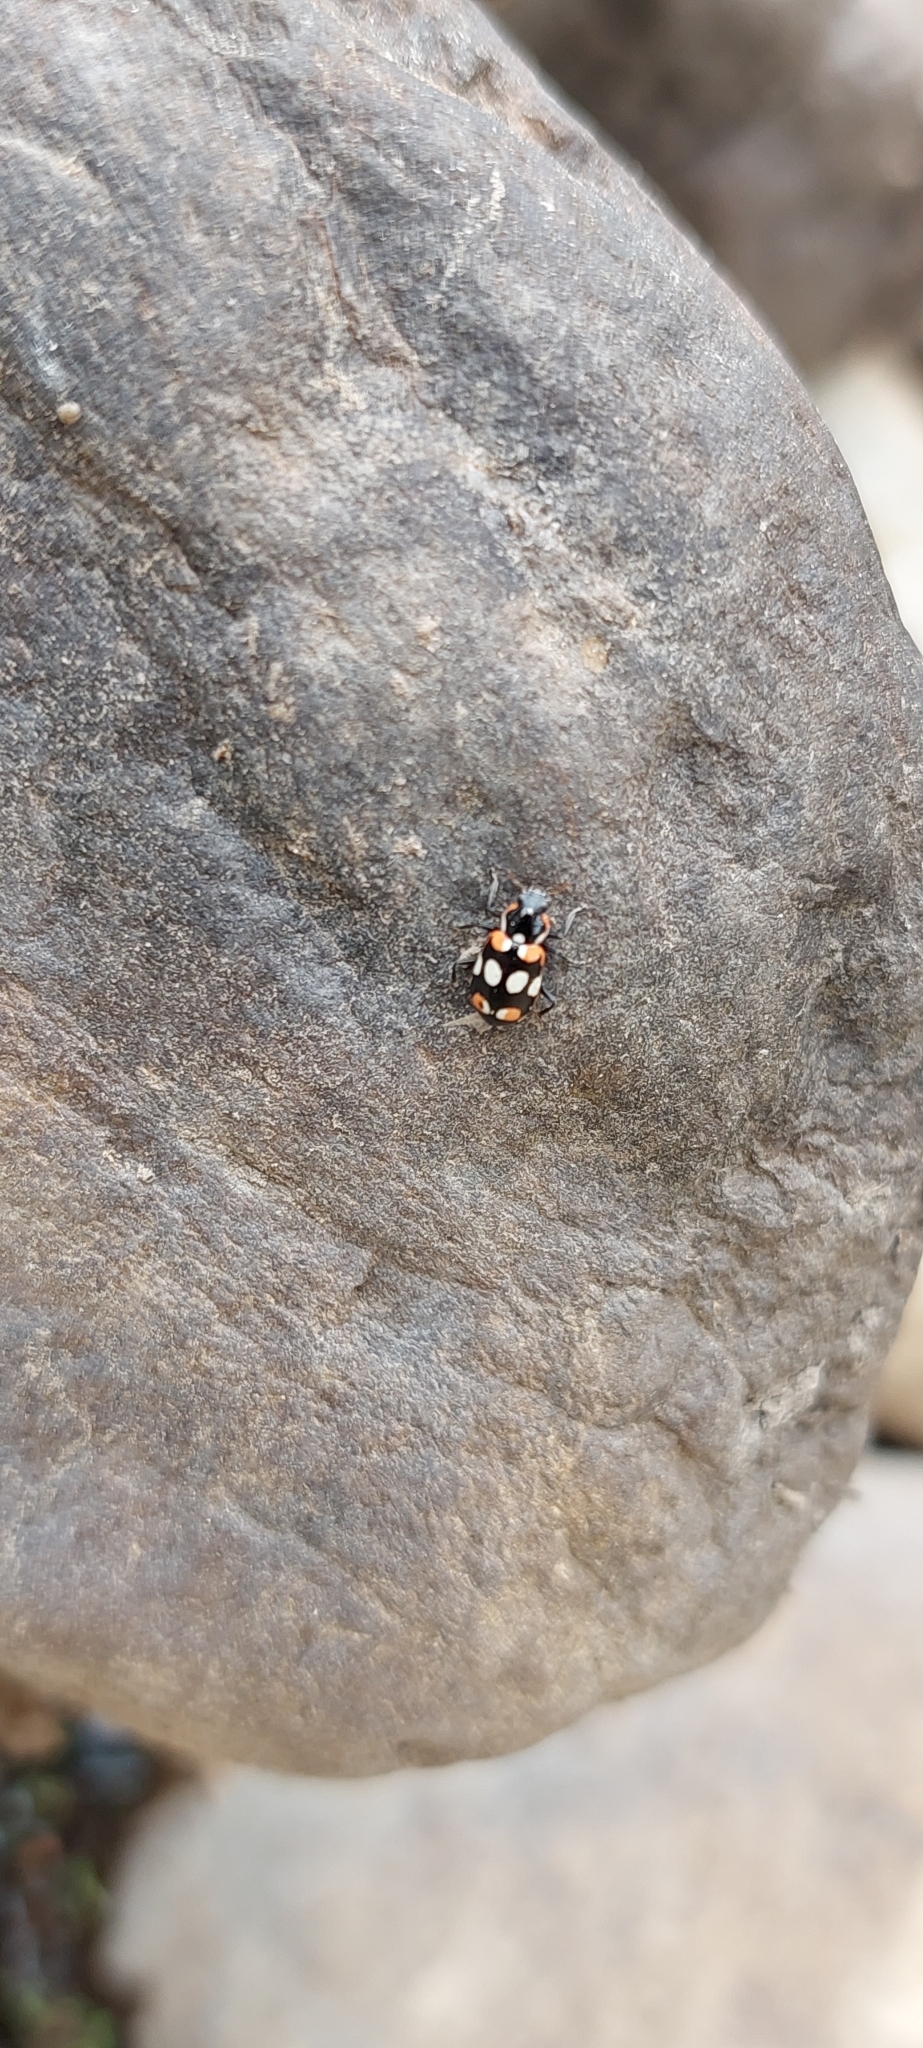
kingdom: Animalia
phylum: Arthropoda
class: Insecta
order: Coleoptera
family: Coccinellidae
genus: Eriopis
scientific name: Eriopis connexa
